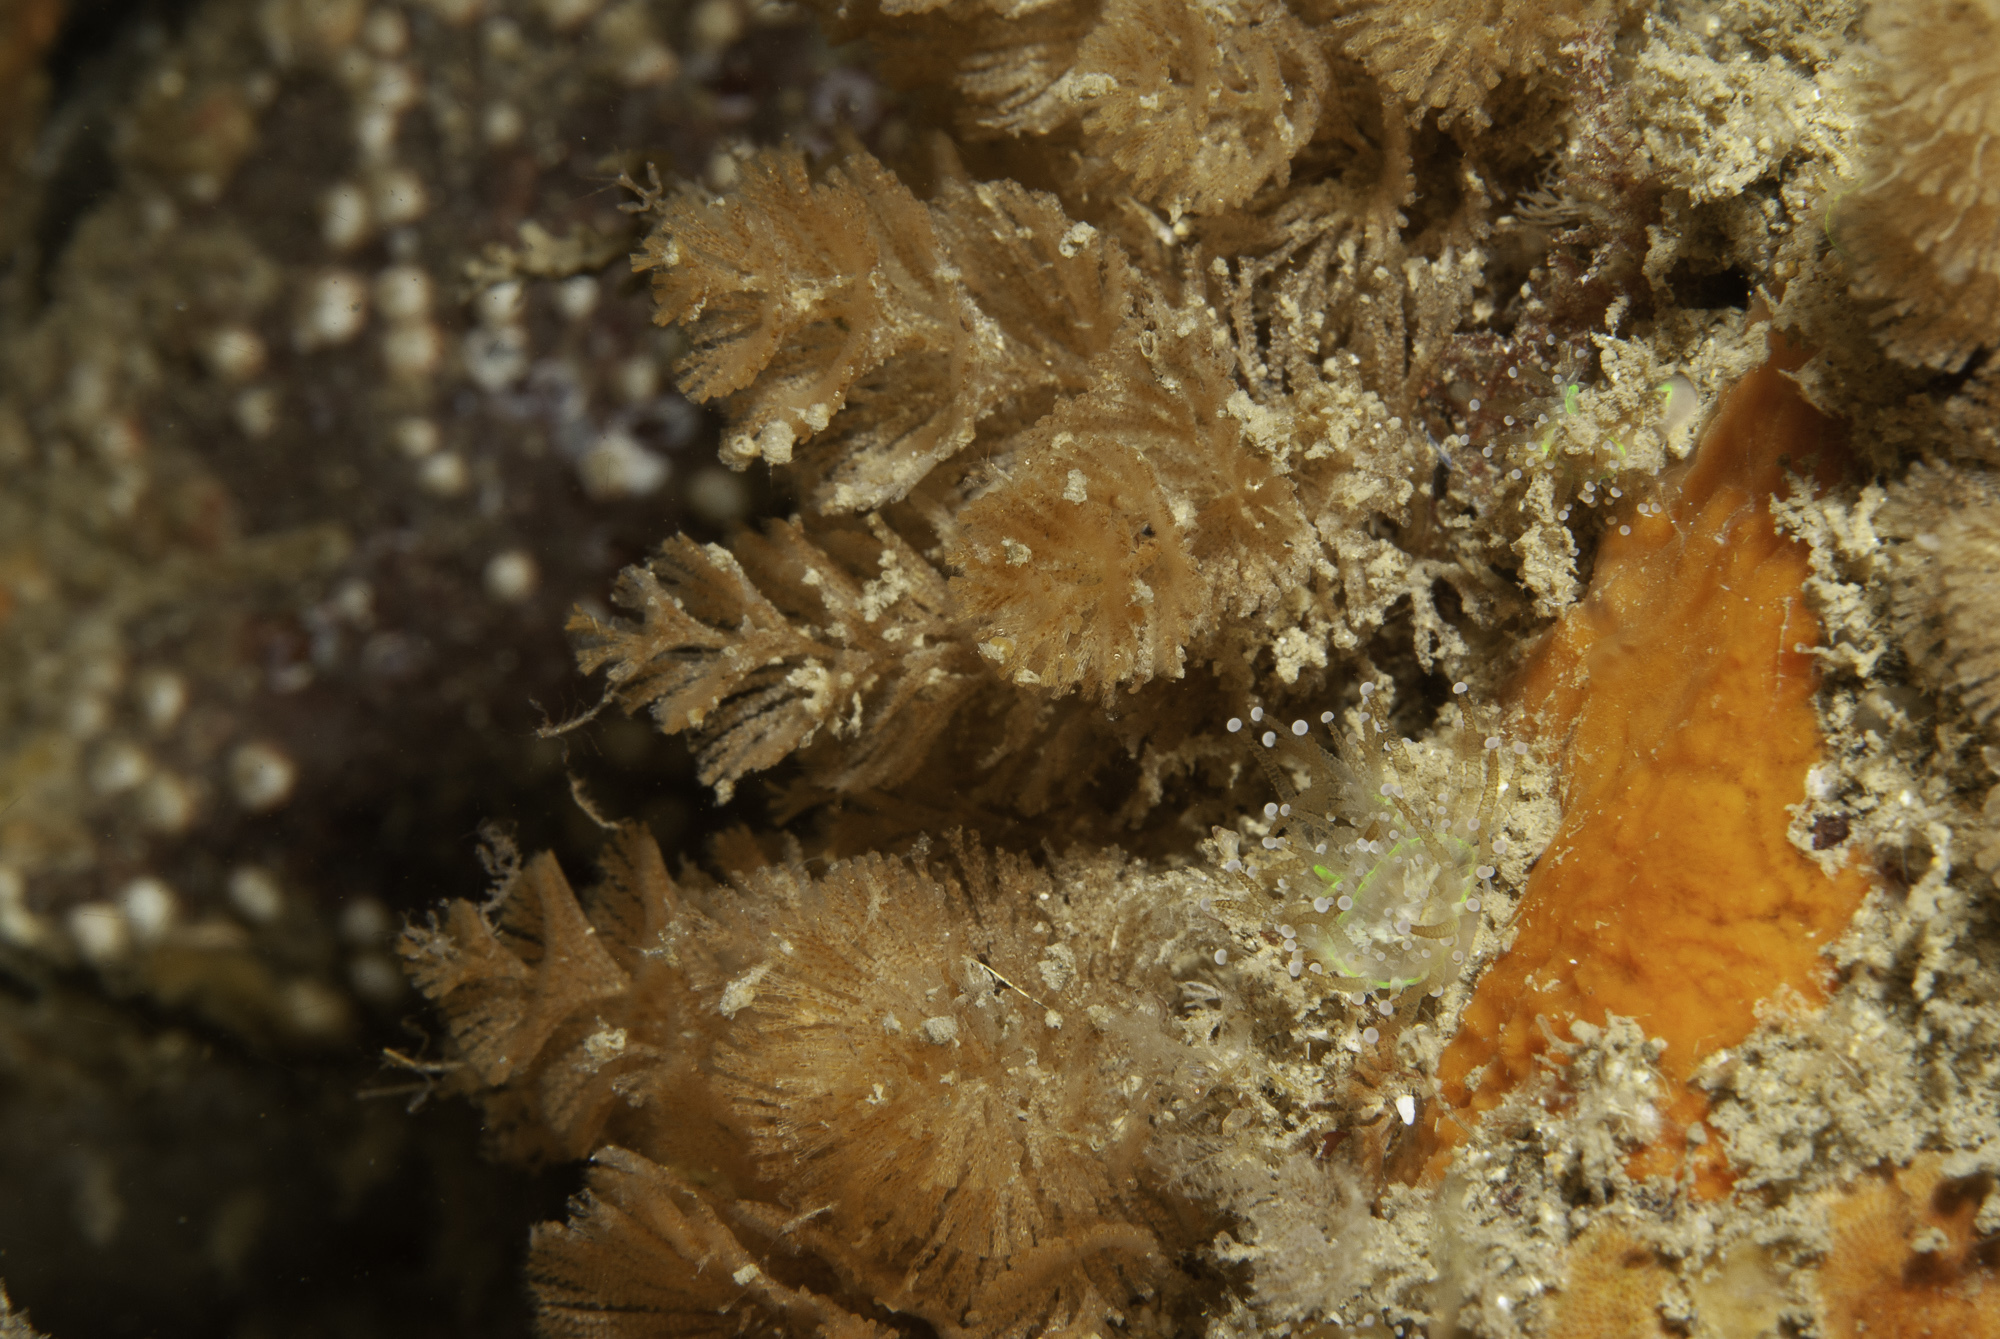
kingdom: Animalia
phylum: Bryozoa
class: Gymnolaemata
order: Cheilostomatida
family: Bugulidae
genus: Bugulina
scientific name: Bugulina turbinata
